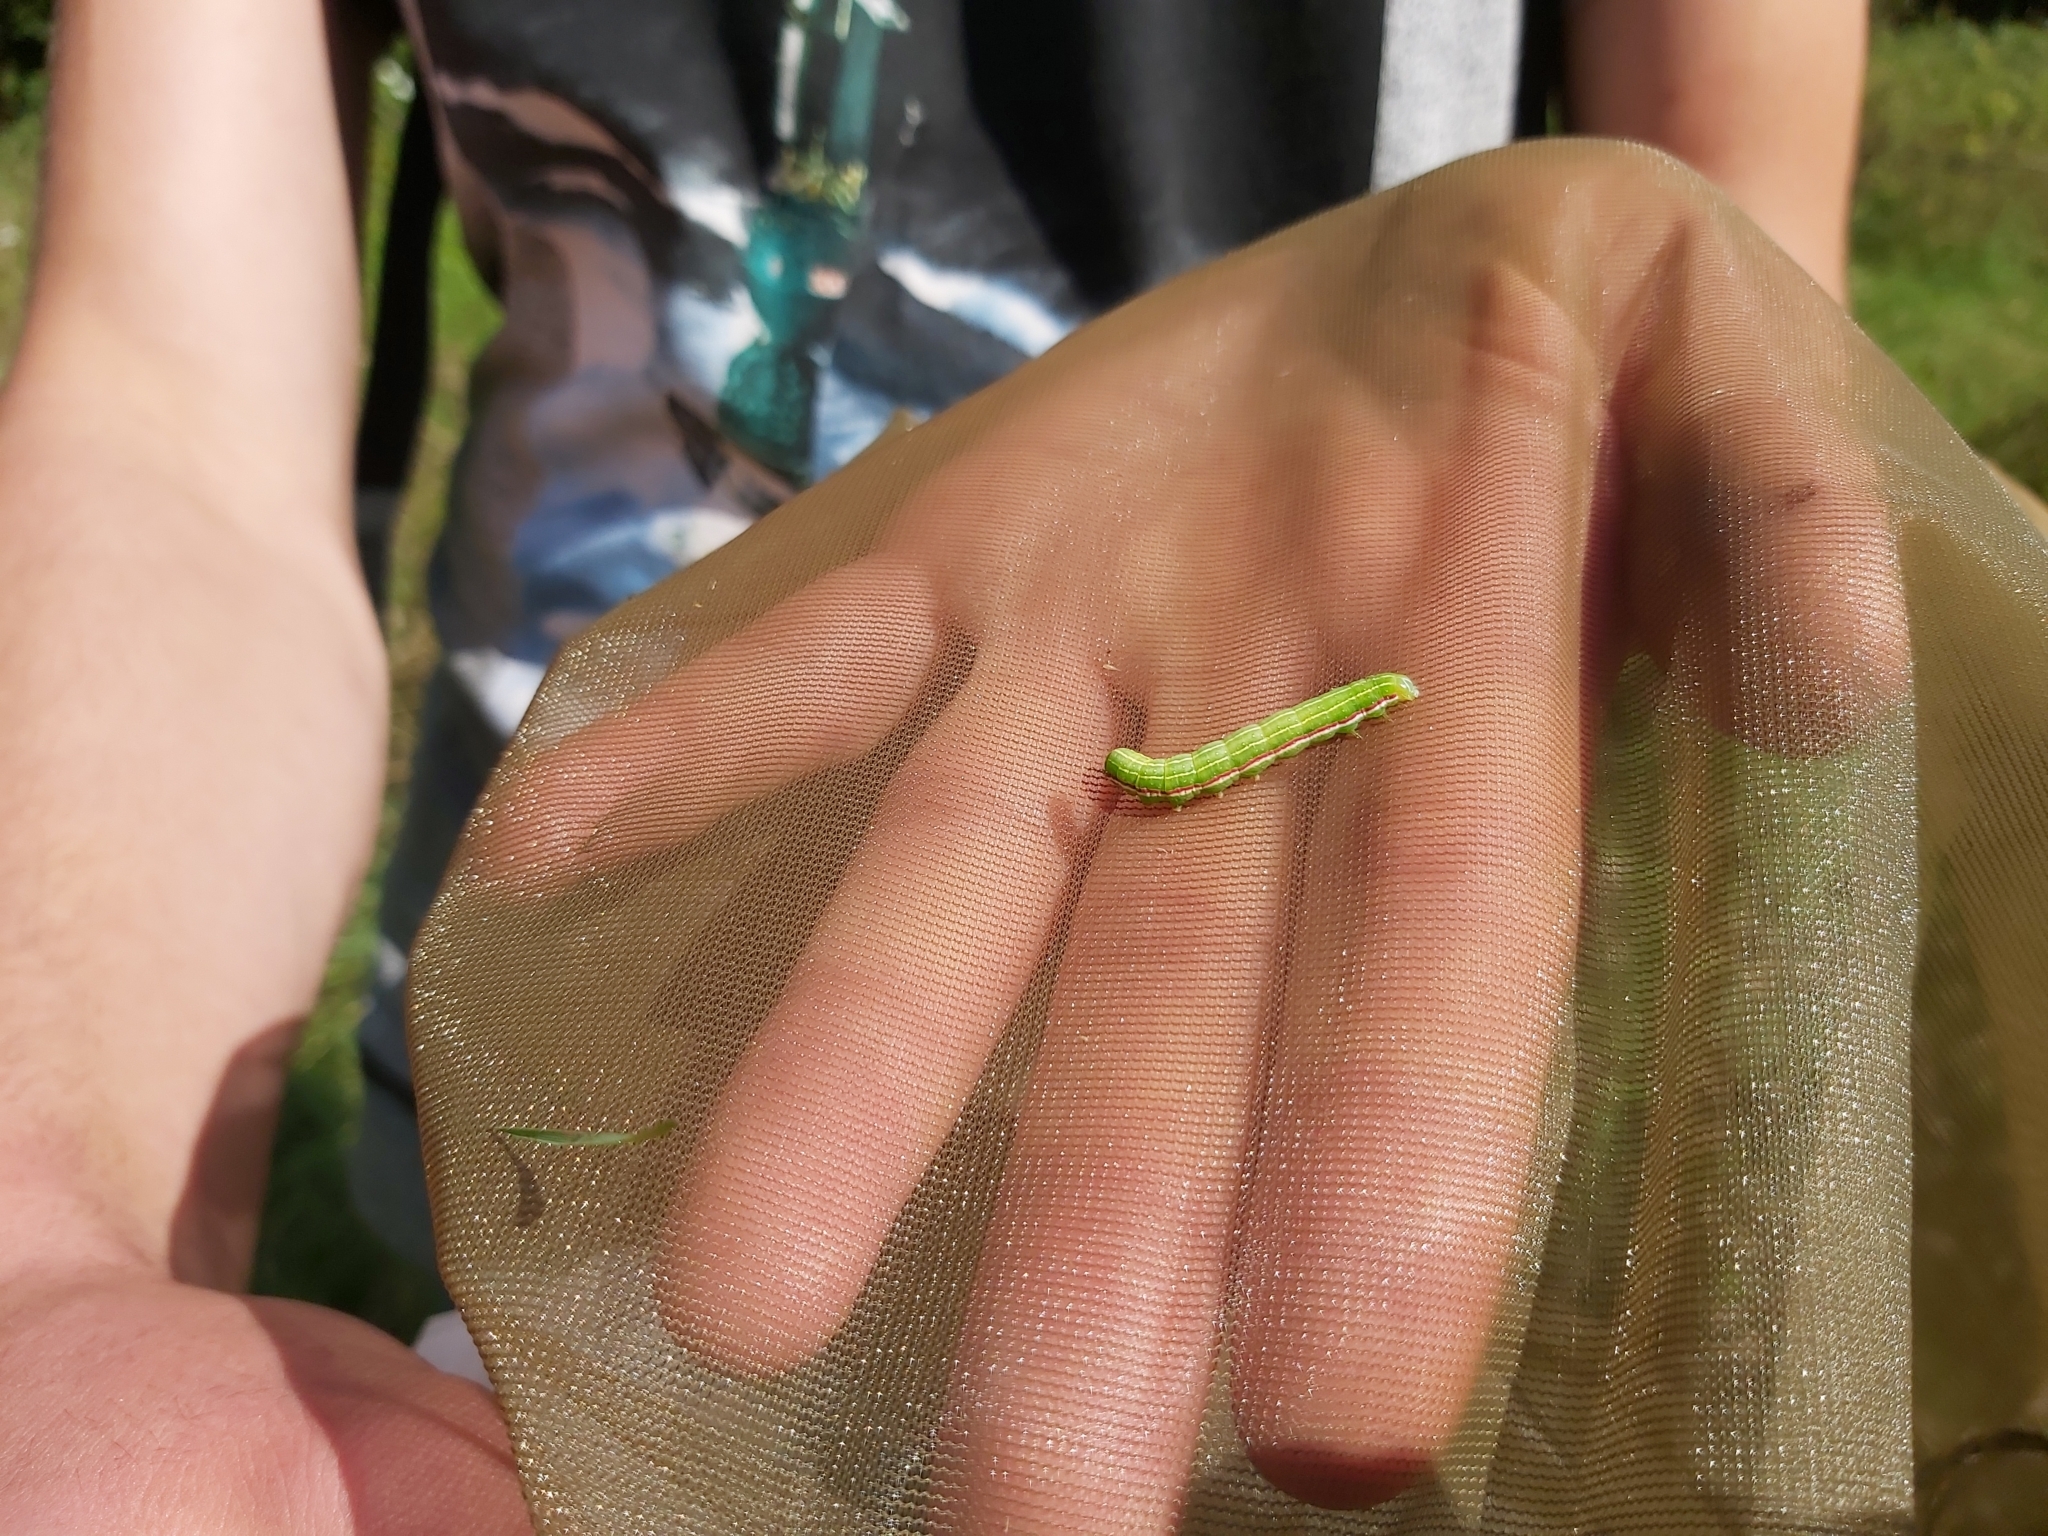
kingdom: Animalia
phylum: Arthropoda
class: Insecta
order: Lepidoptera
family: Noctuidae
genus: Eucarta
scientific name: Eucarta virgo
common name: Silvery gem
